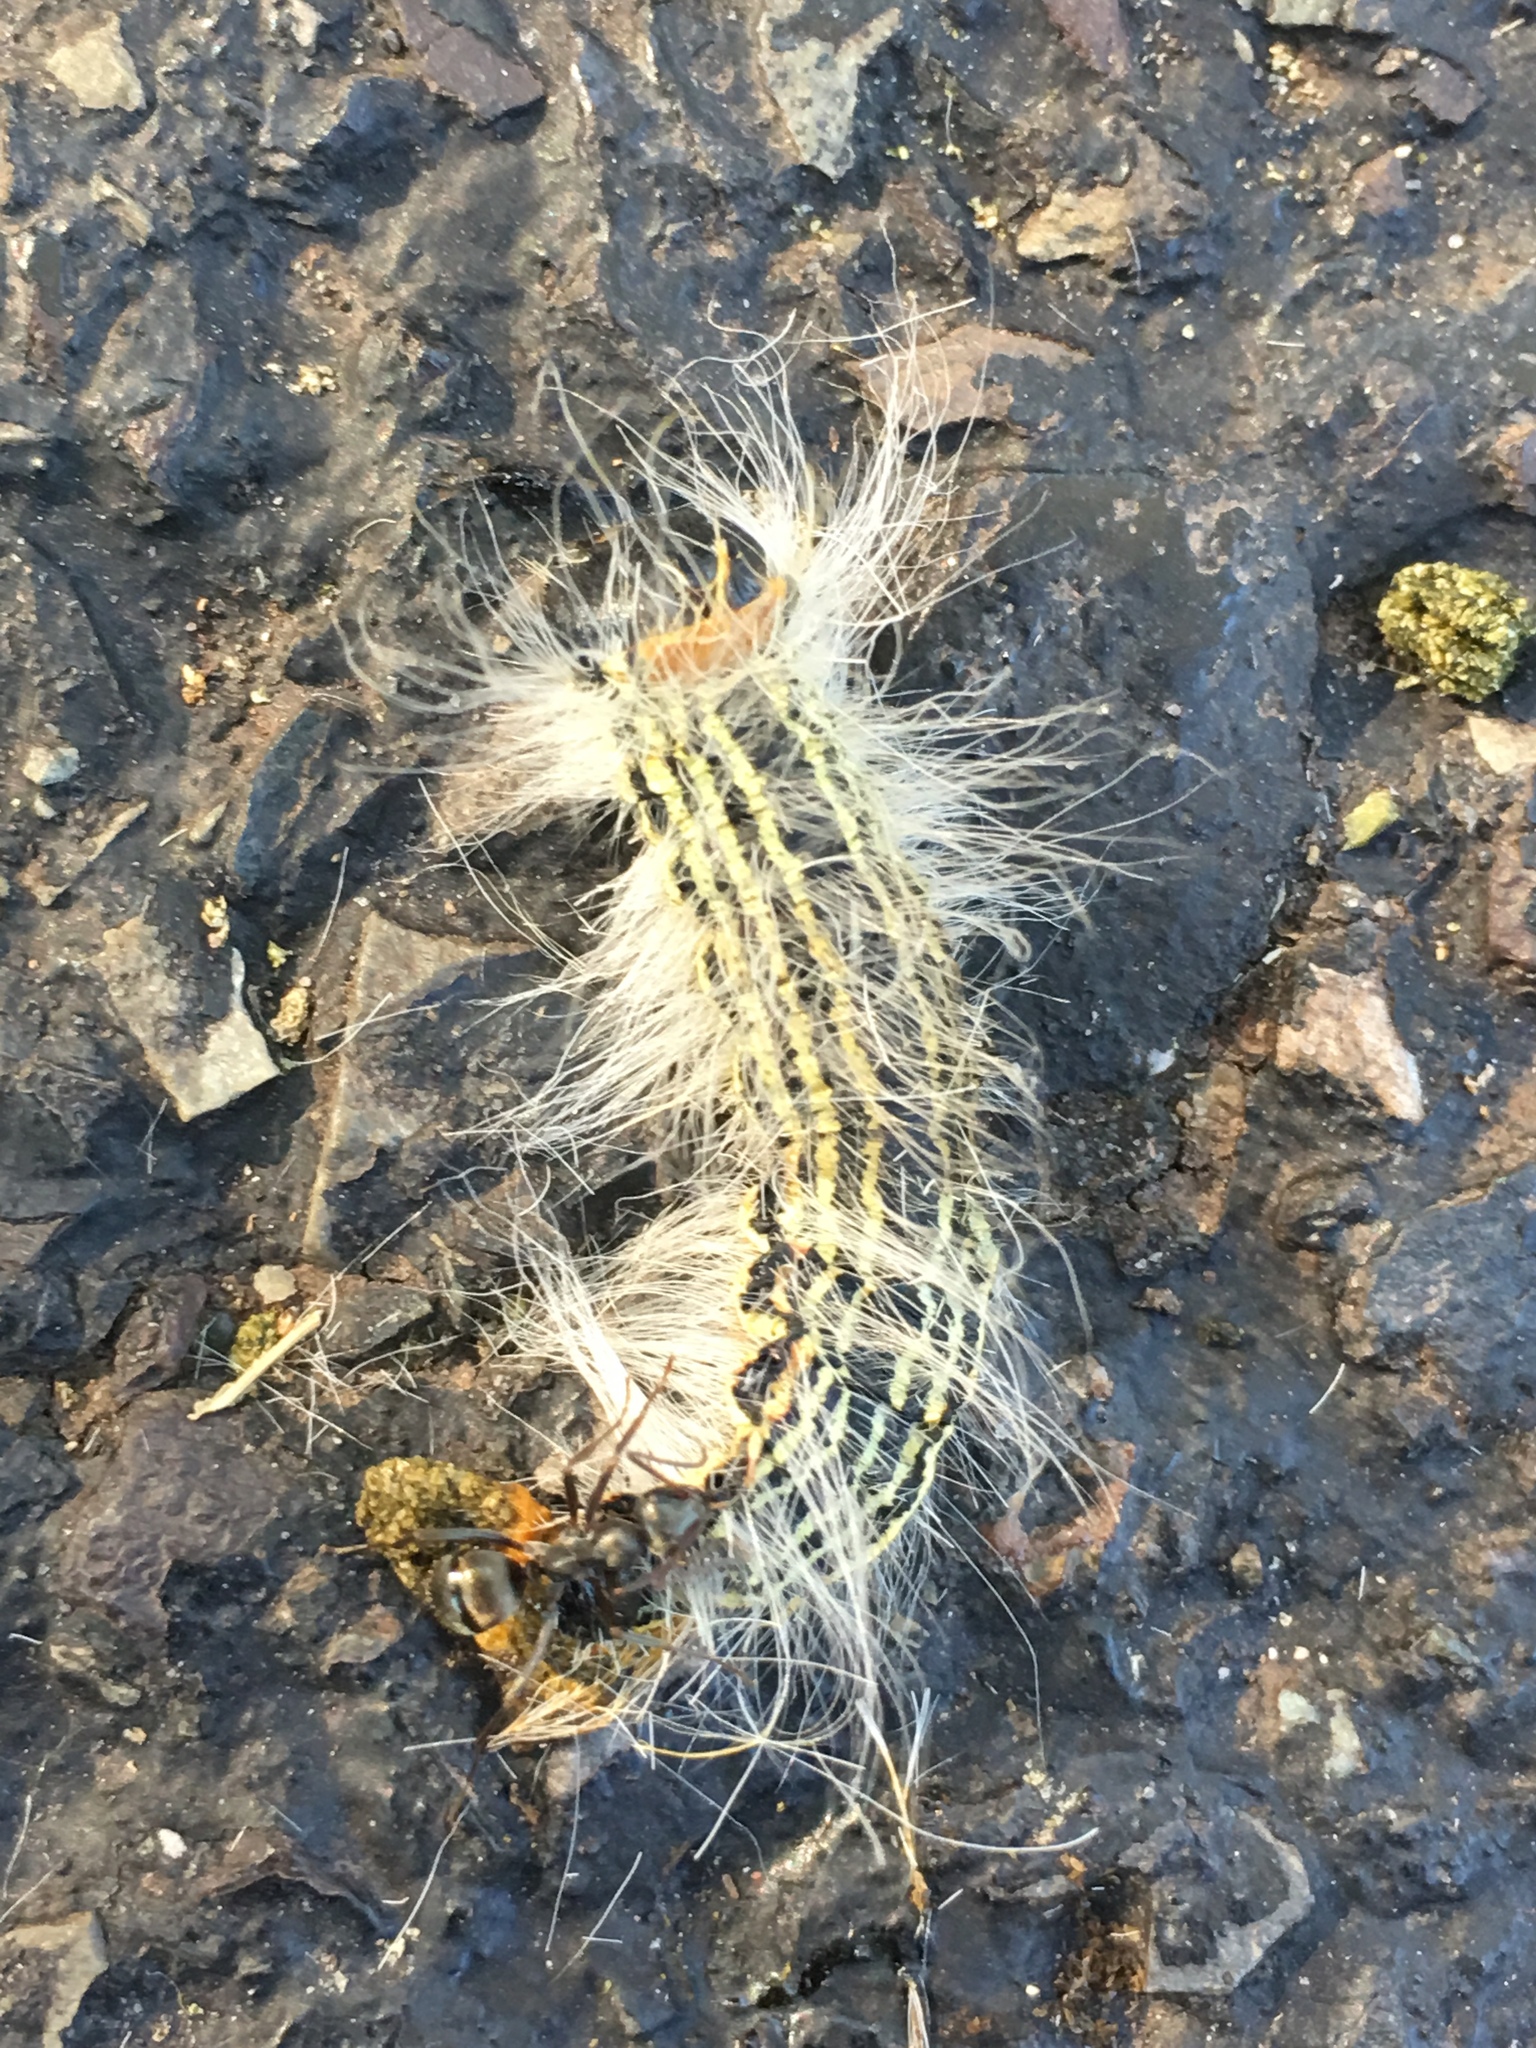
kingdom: Animalia
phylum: Arthropoda
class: Insecta
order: Lepidoptera
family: Notodontidae
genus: Datana
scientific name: Datana ministra
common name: Yellow-necked caterpillar moth
